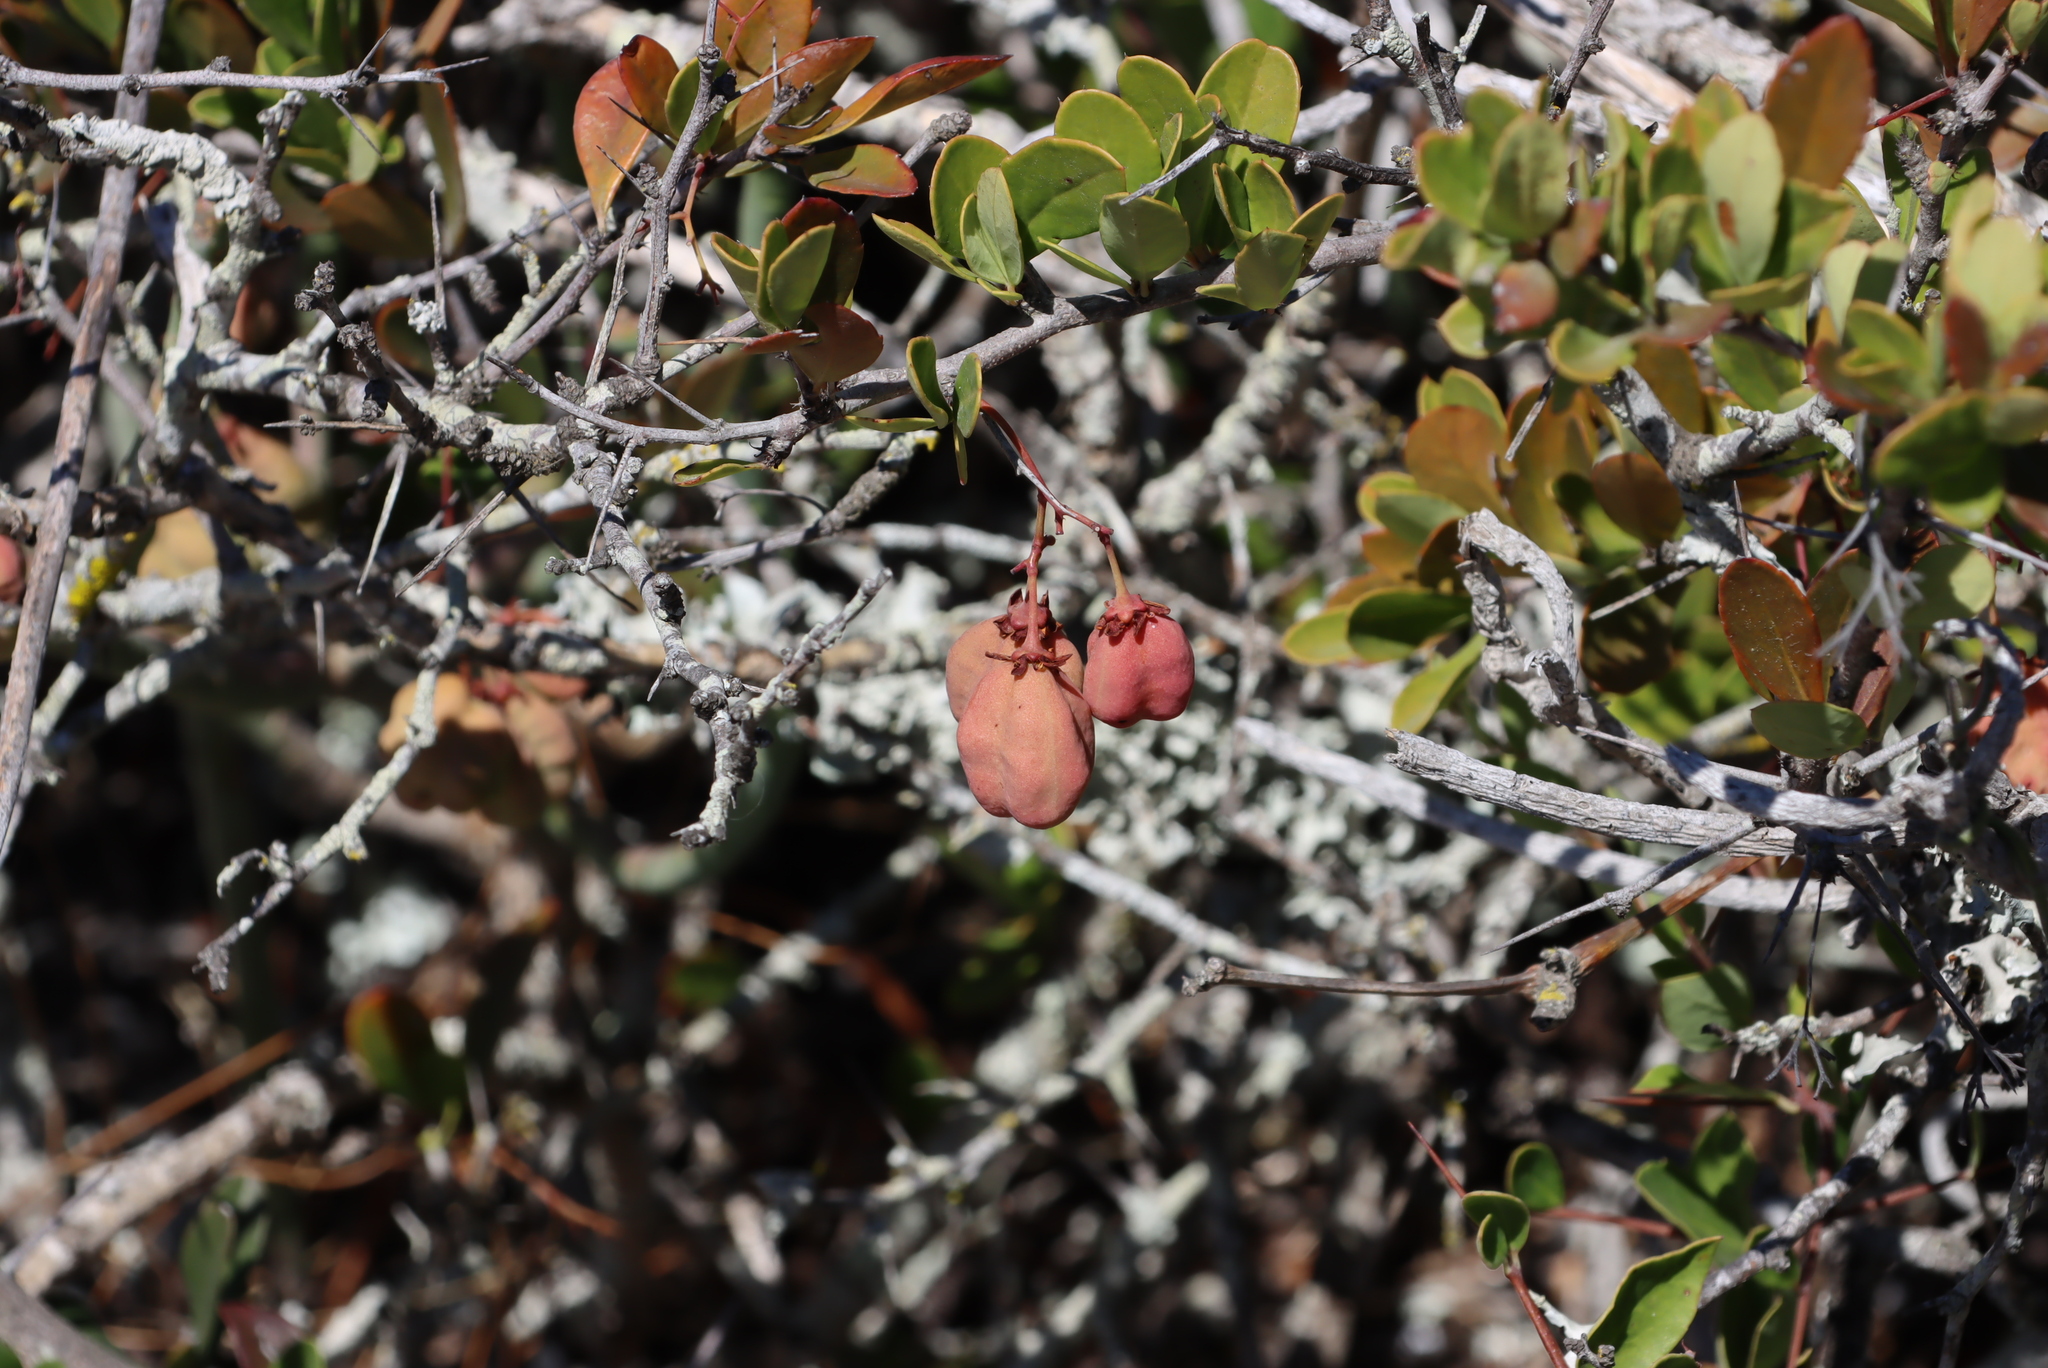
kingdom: Plantae
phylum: Tracheophyta
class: Magnoliopsida
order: Celastrales
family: Celastraceae
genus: Putterlickia
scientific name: Putterlickia pyracantha
